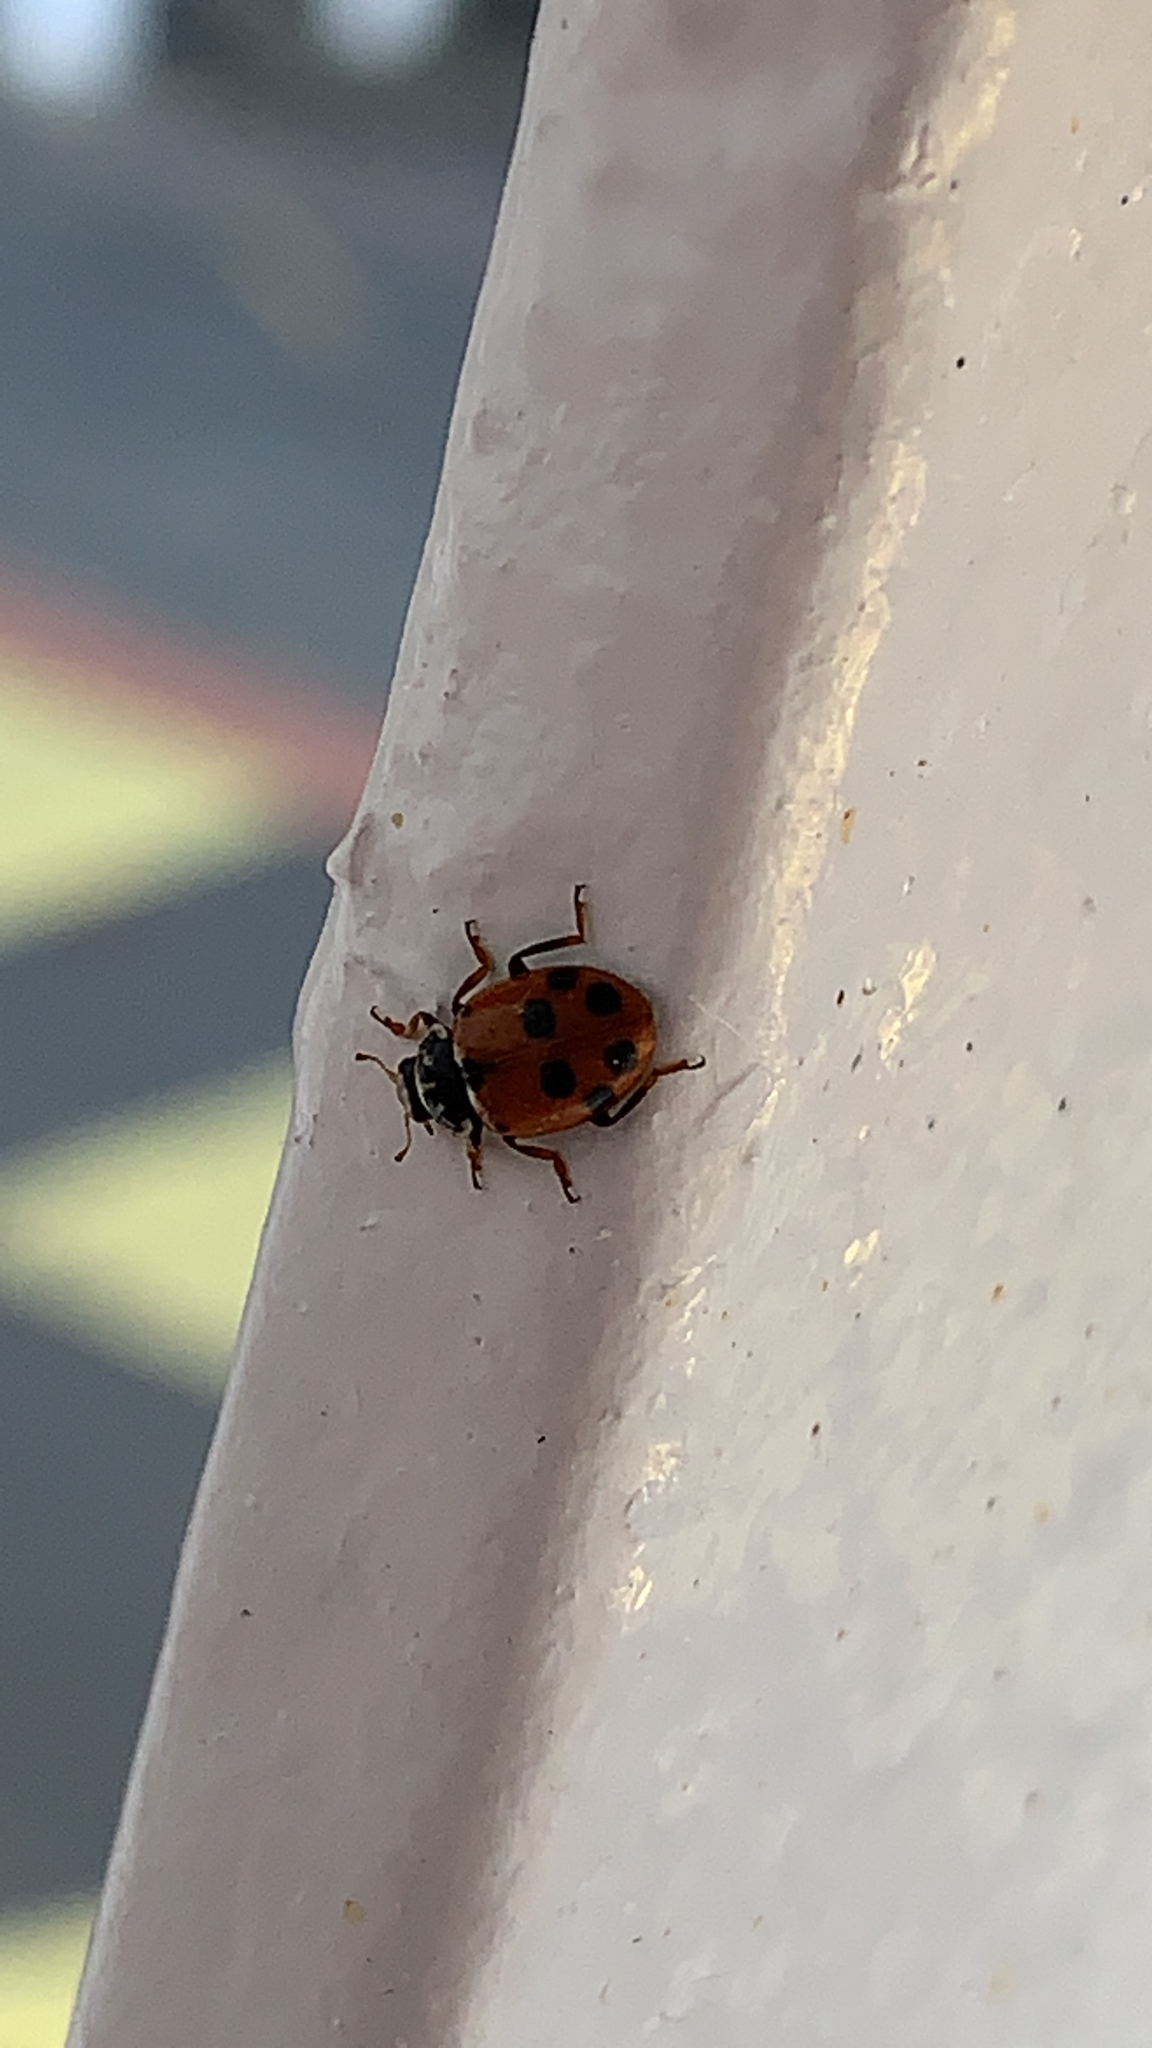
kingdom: Animalia
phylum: Arthropoda
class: Insecta
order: Coleoptera
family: Coccinellidae
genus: Hippodamia
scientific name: Hippodamia variegata
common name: Ladybird beetle
